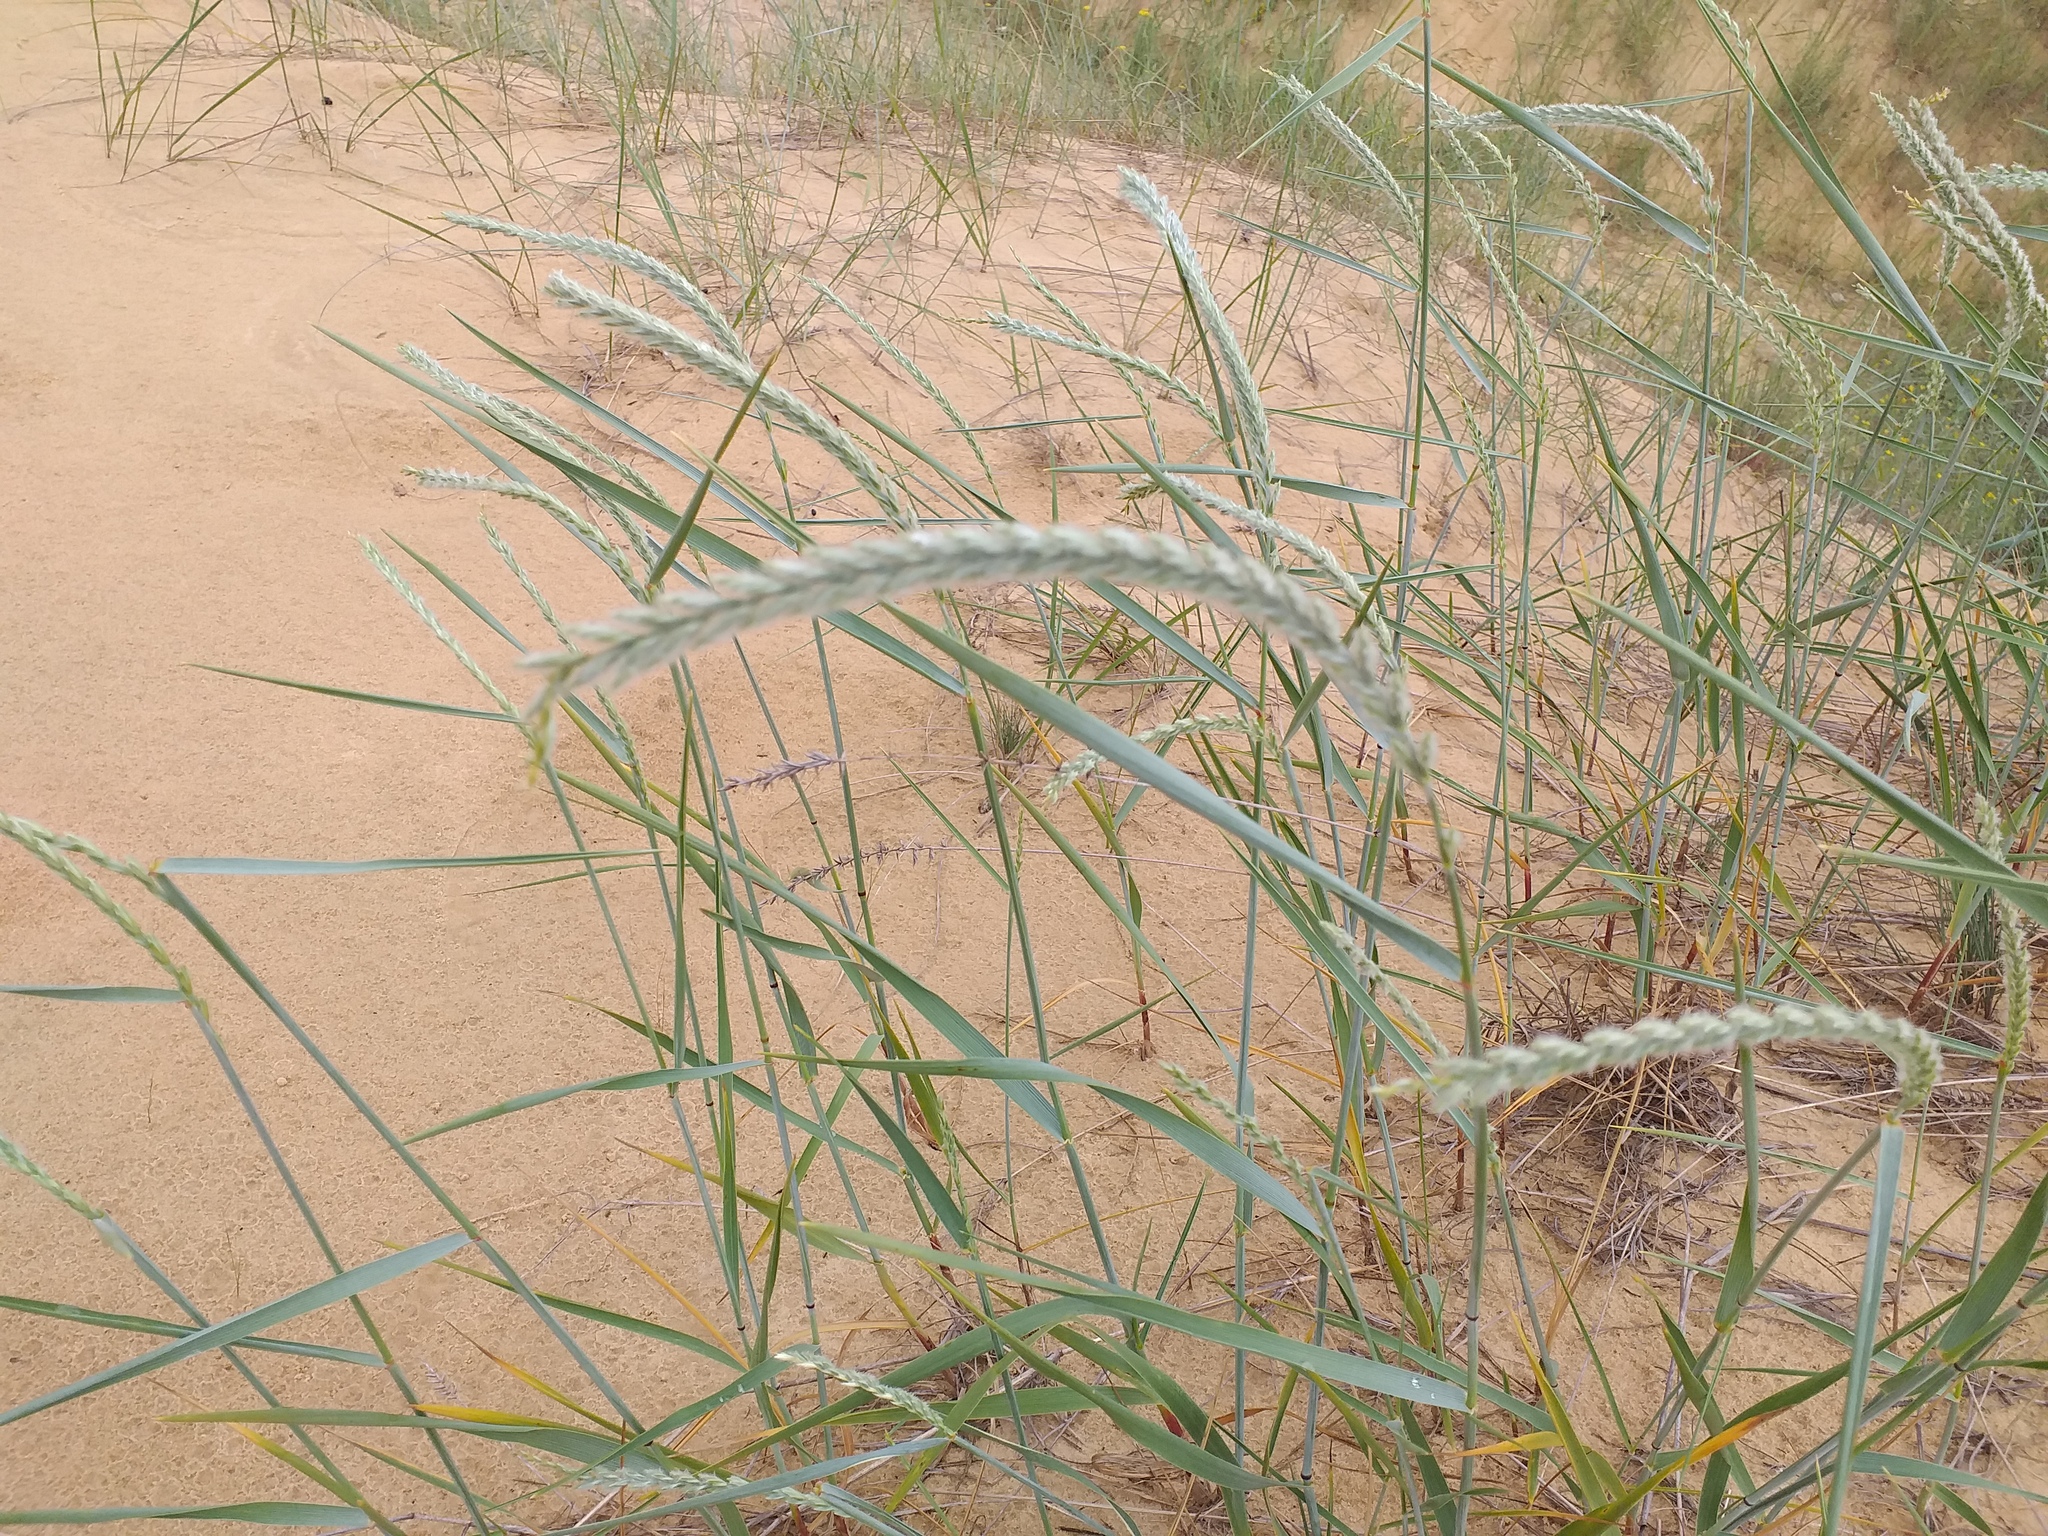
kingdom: Plantae
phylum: Tracheophyta
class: Liliopsida
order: Poales
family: Poaceae
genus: Agropyron
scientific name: Agropyron dasyanthum
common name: Edge flowered crested wheatgrass
